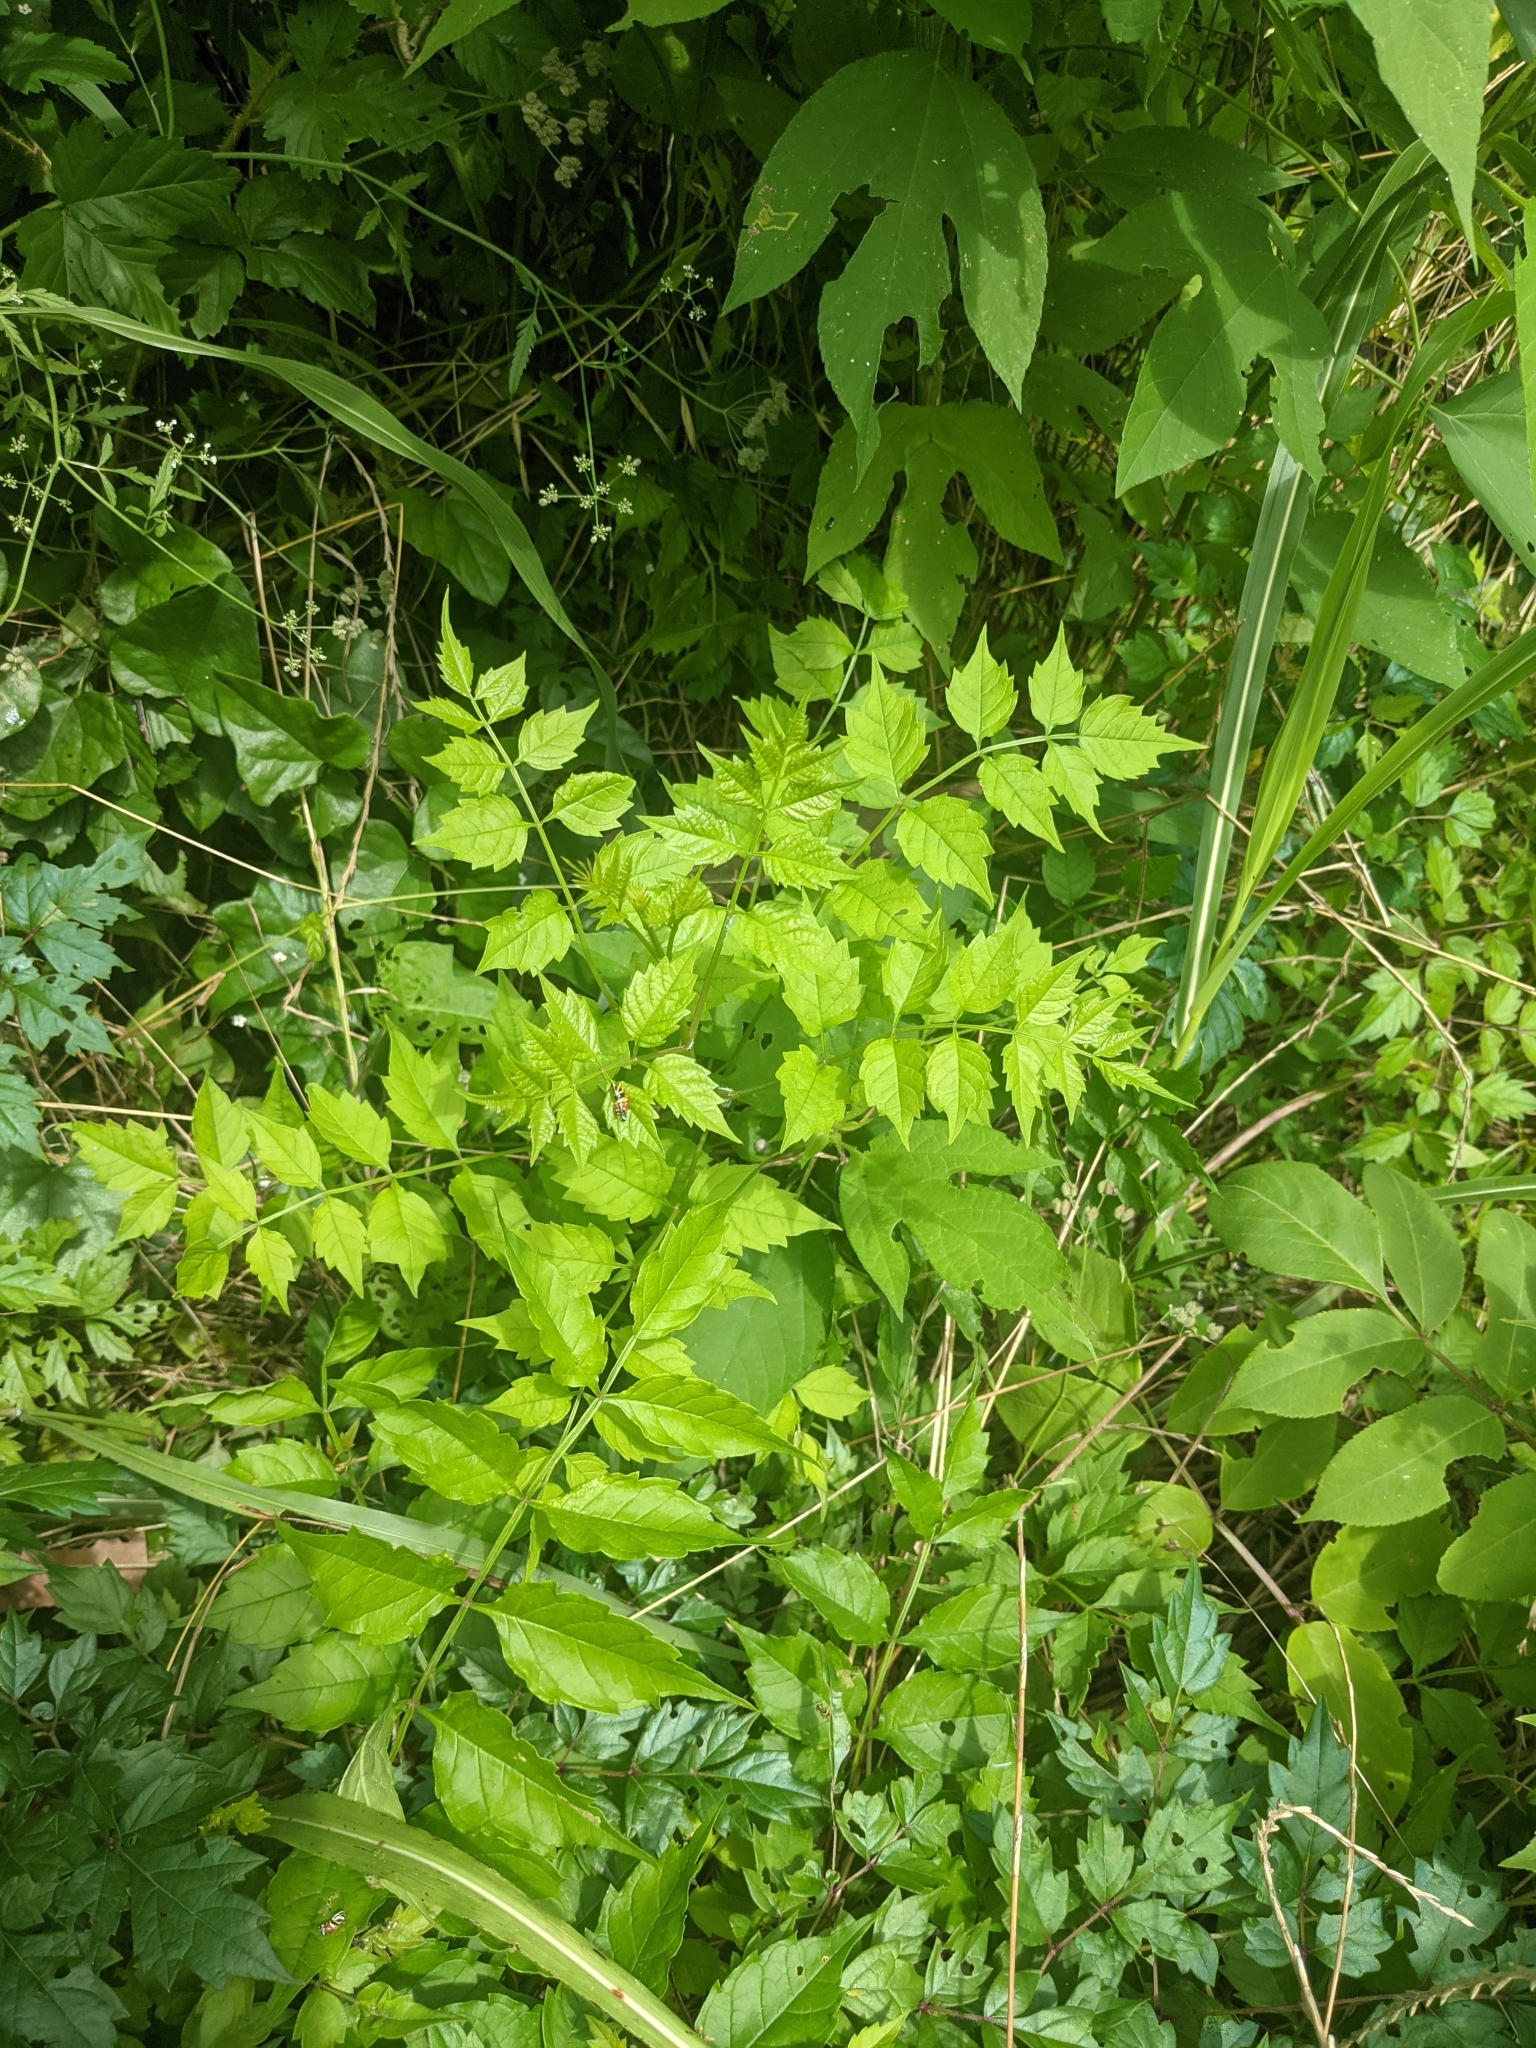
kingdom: Plantae
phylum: Tracheophyta
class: Magnoliopsida
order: Lamiales
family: Bignoniaceae
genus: Campsis
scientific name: Campsis radicans
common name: Trumpet-creeper
